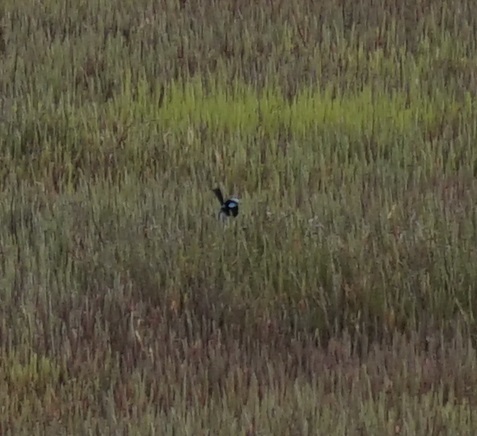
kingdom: Animalia
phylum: Chordata
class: Aves
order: Passeriformes
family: Maluridae
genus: Malurus
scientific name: Malurus cyaneus
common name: Superb fairywren
